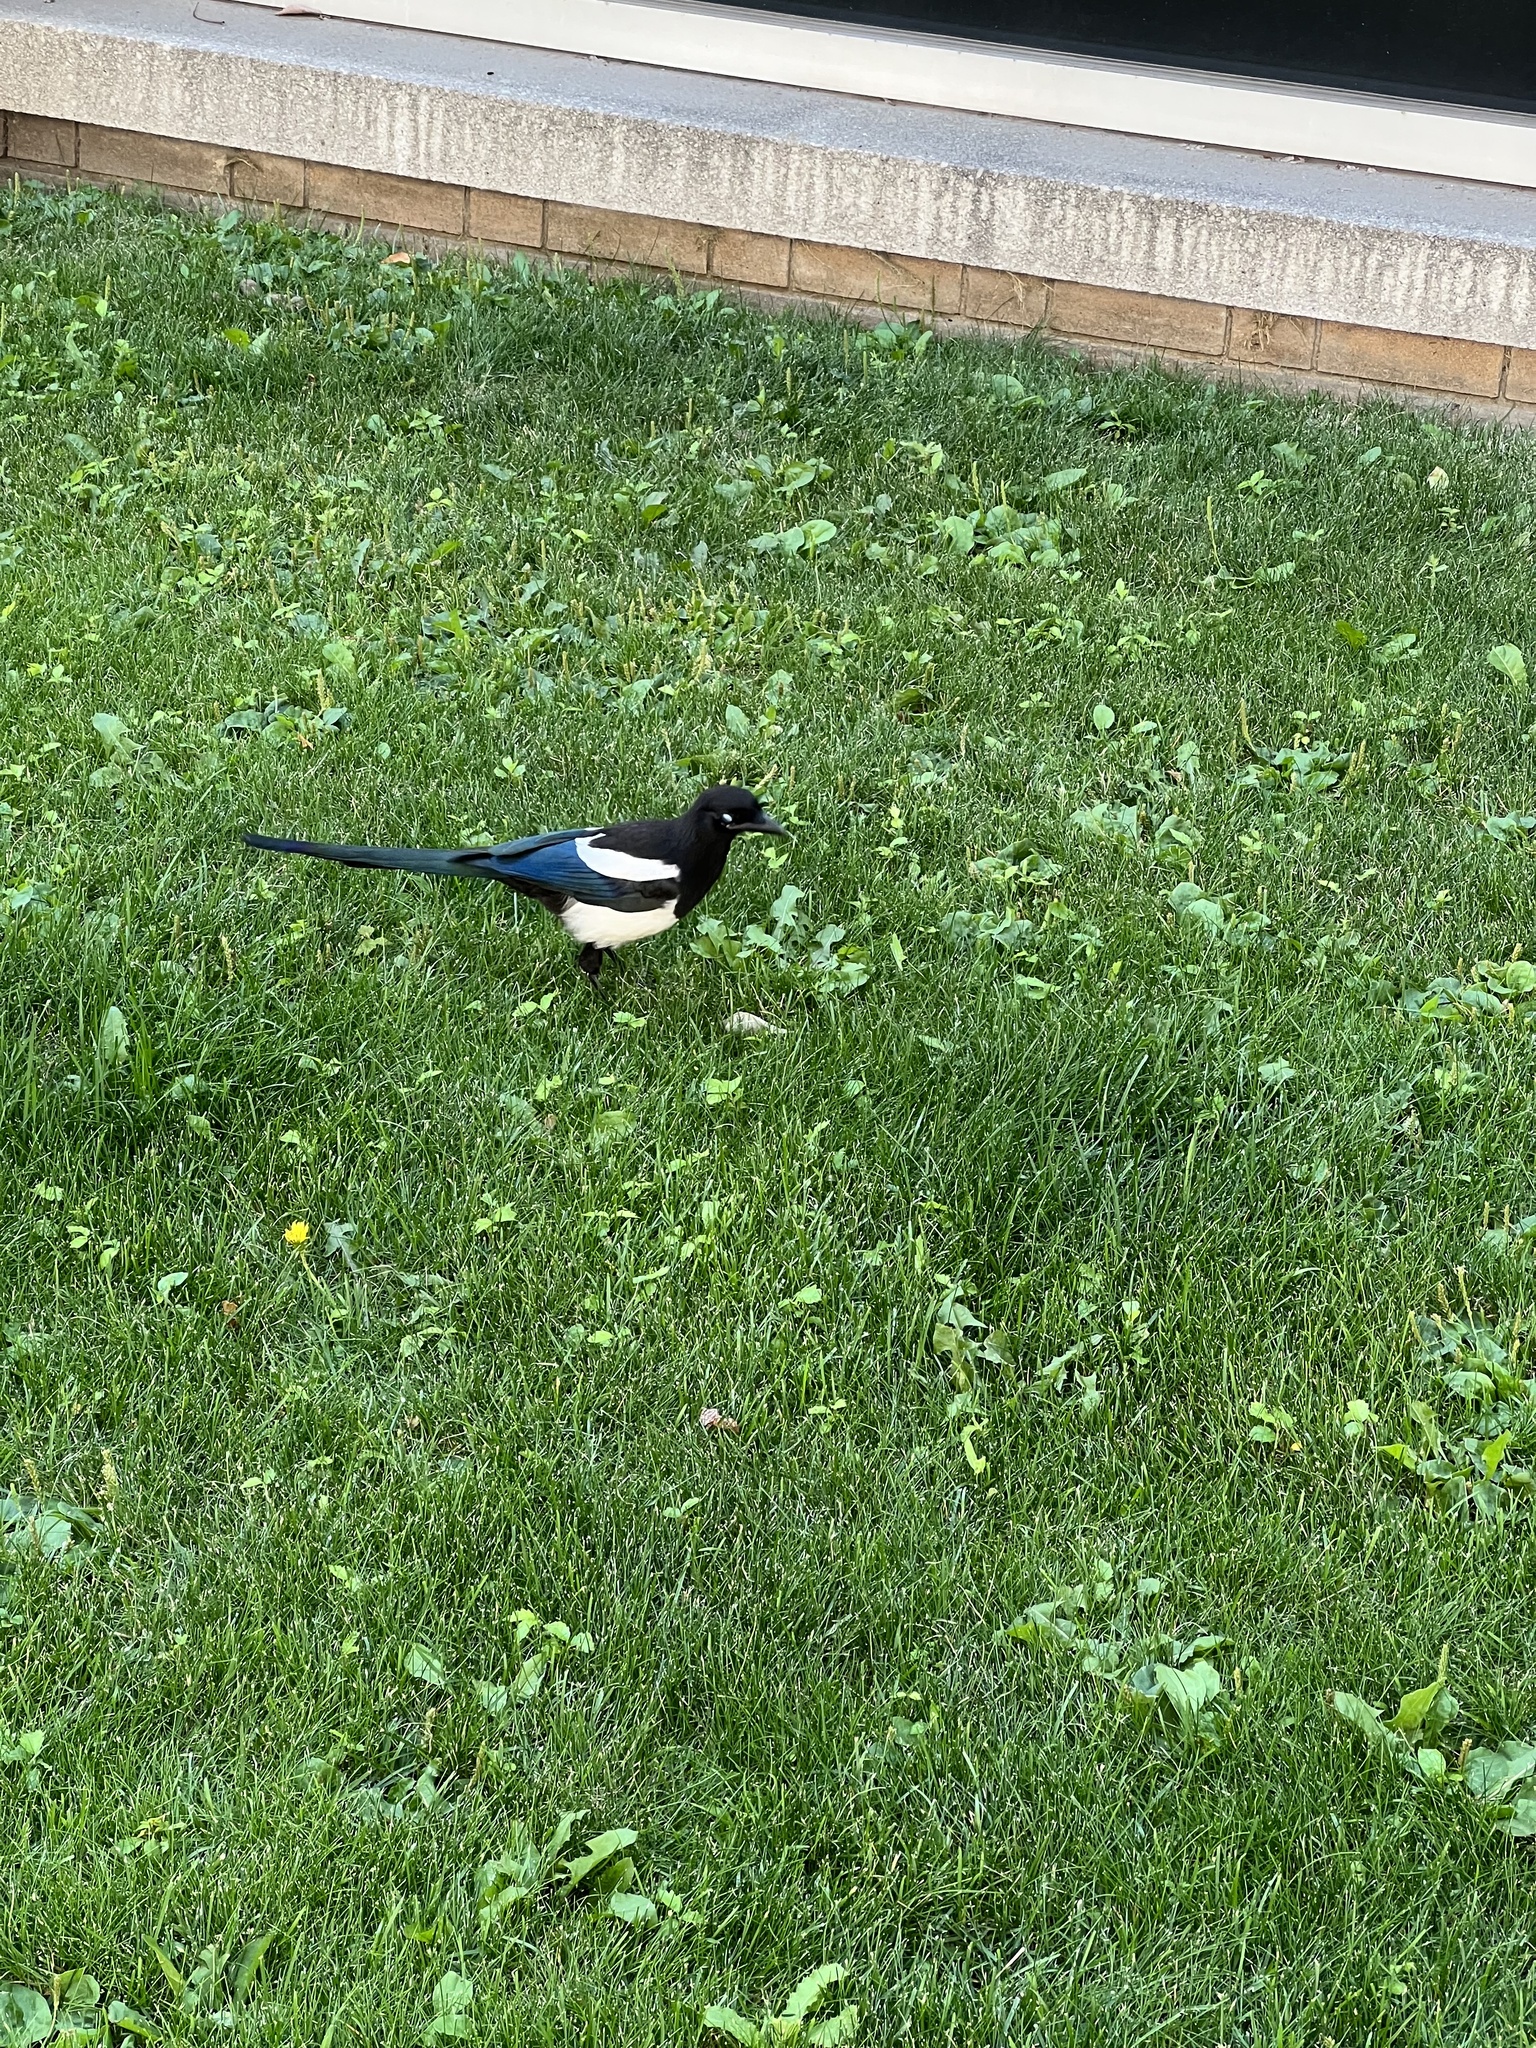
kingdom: Animalia
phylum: Chordata
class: Aves
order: Passeriformes
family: Corvidae
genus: Pica
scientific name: Pica hudsonia
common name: Black-billed magpie
